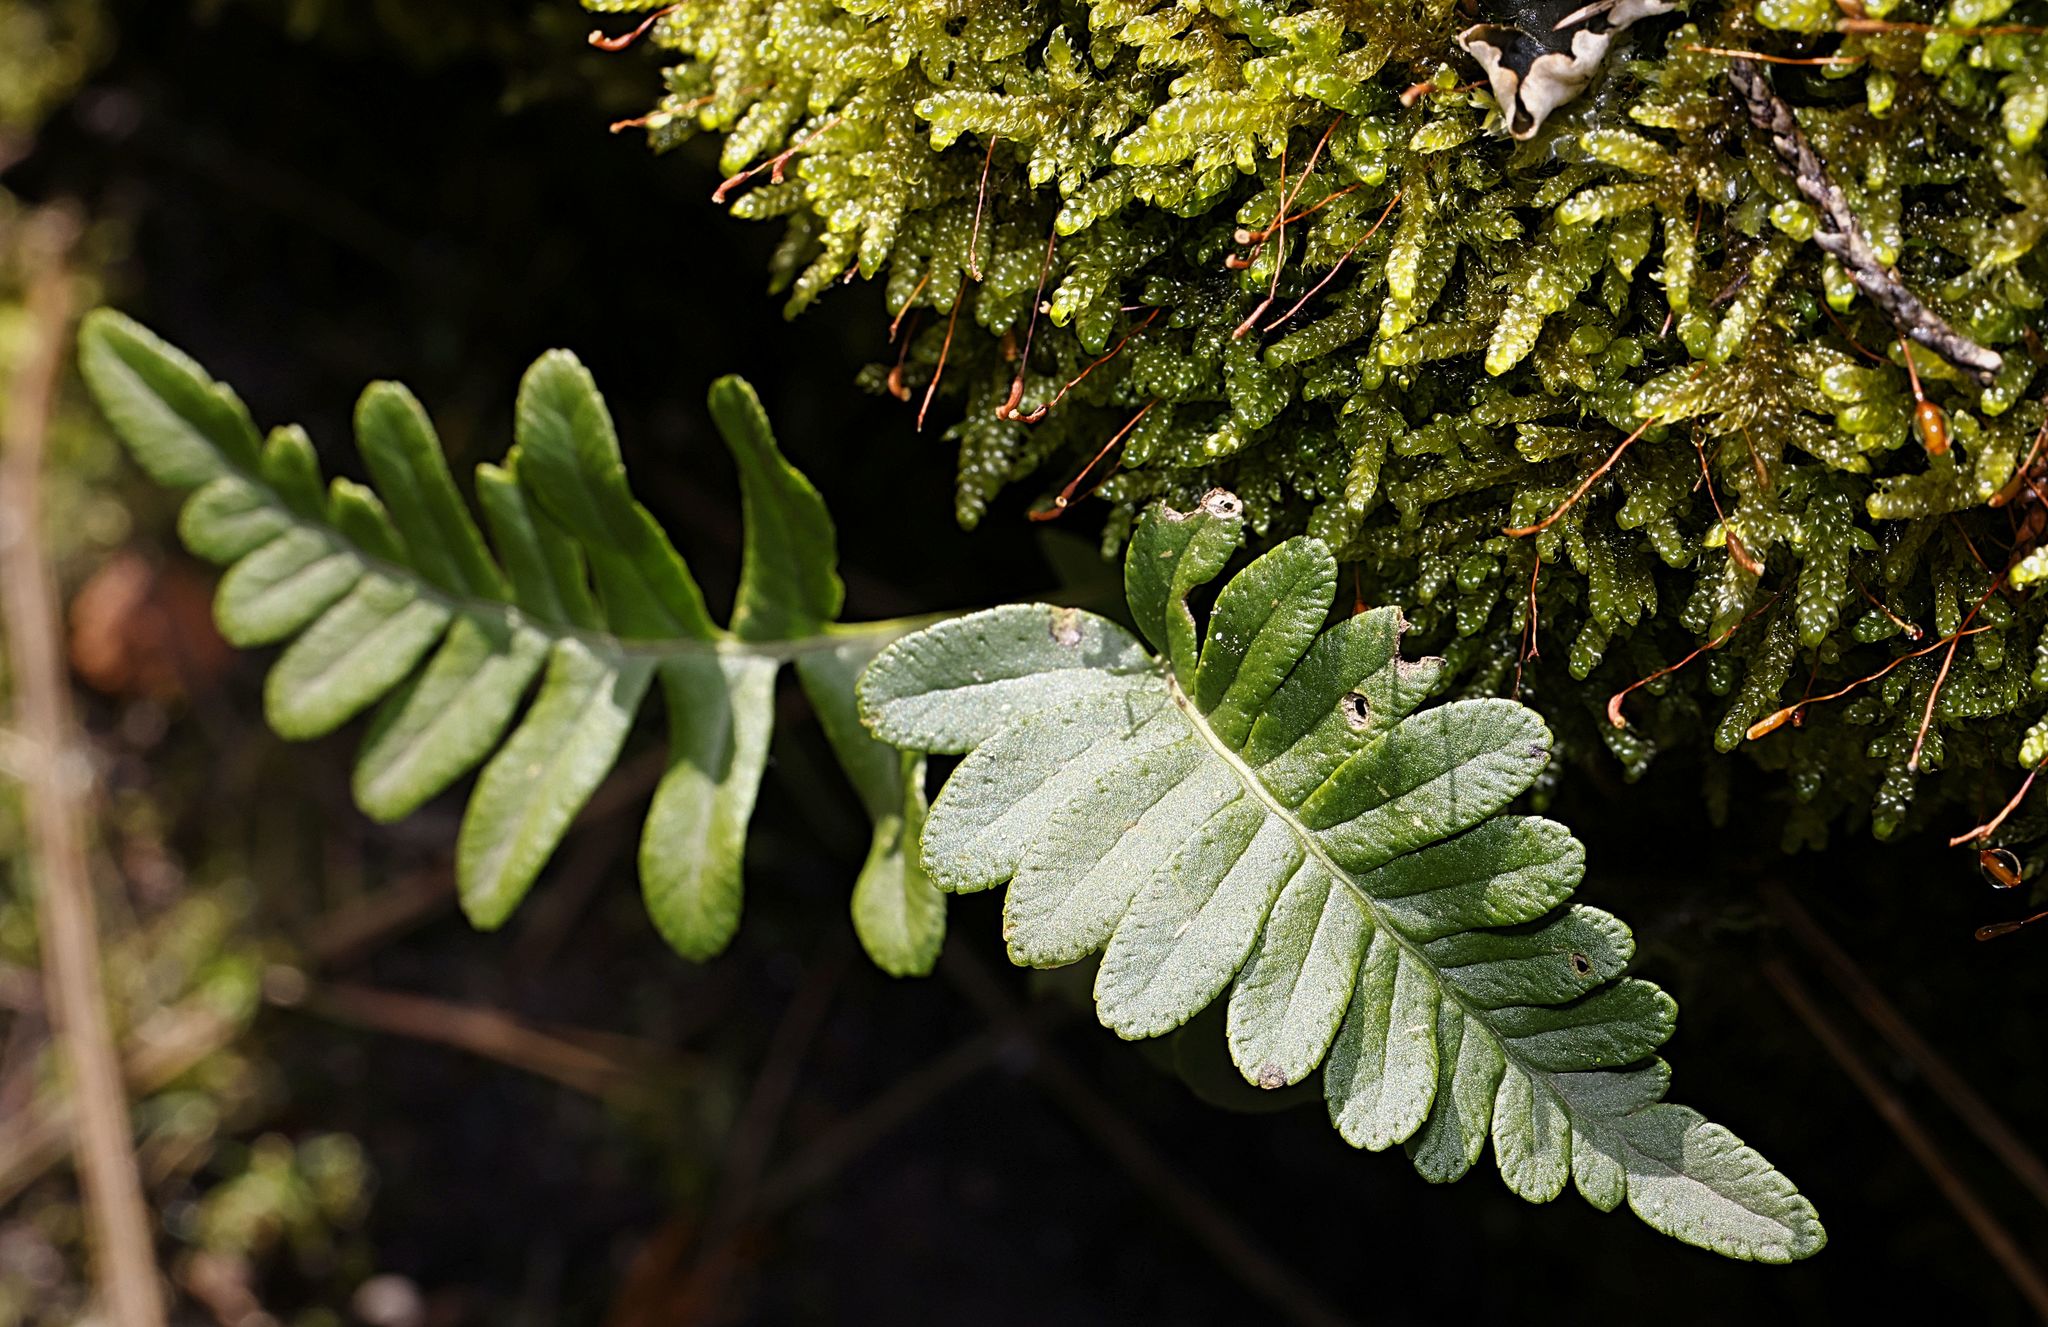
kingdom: Plantae
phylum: Tracheophyta
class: Polypodiopsida
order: Polypodiales
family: Polypodiaceae
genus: Polypodium
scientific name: Polypodium vulgare
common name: Common polypody
